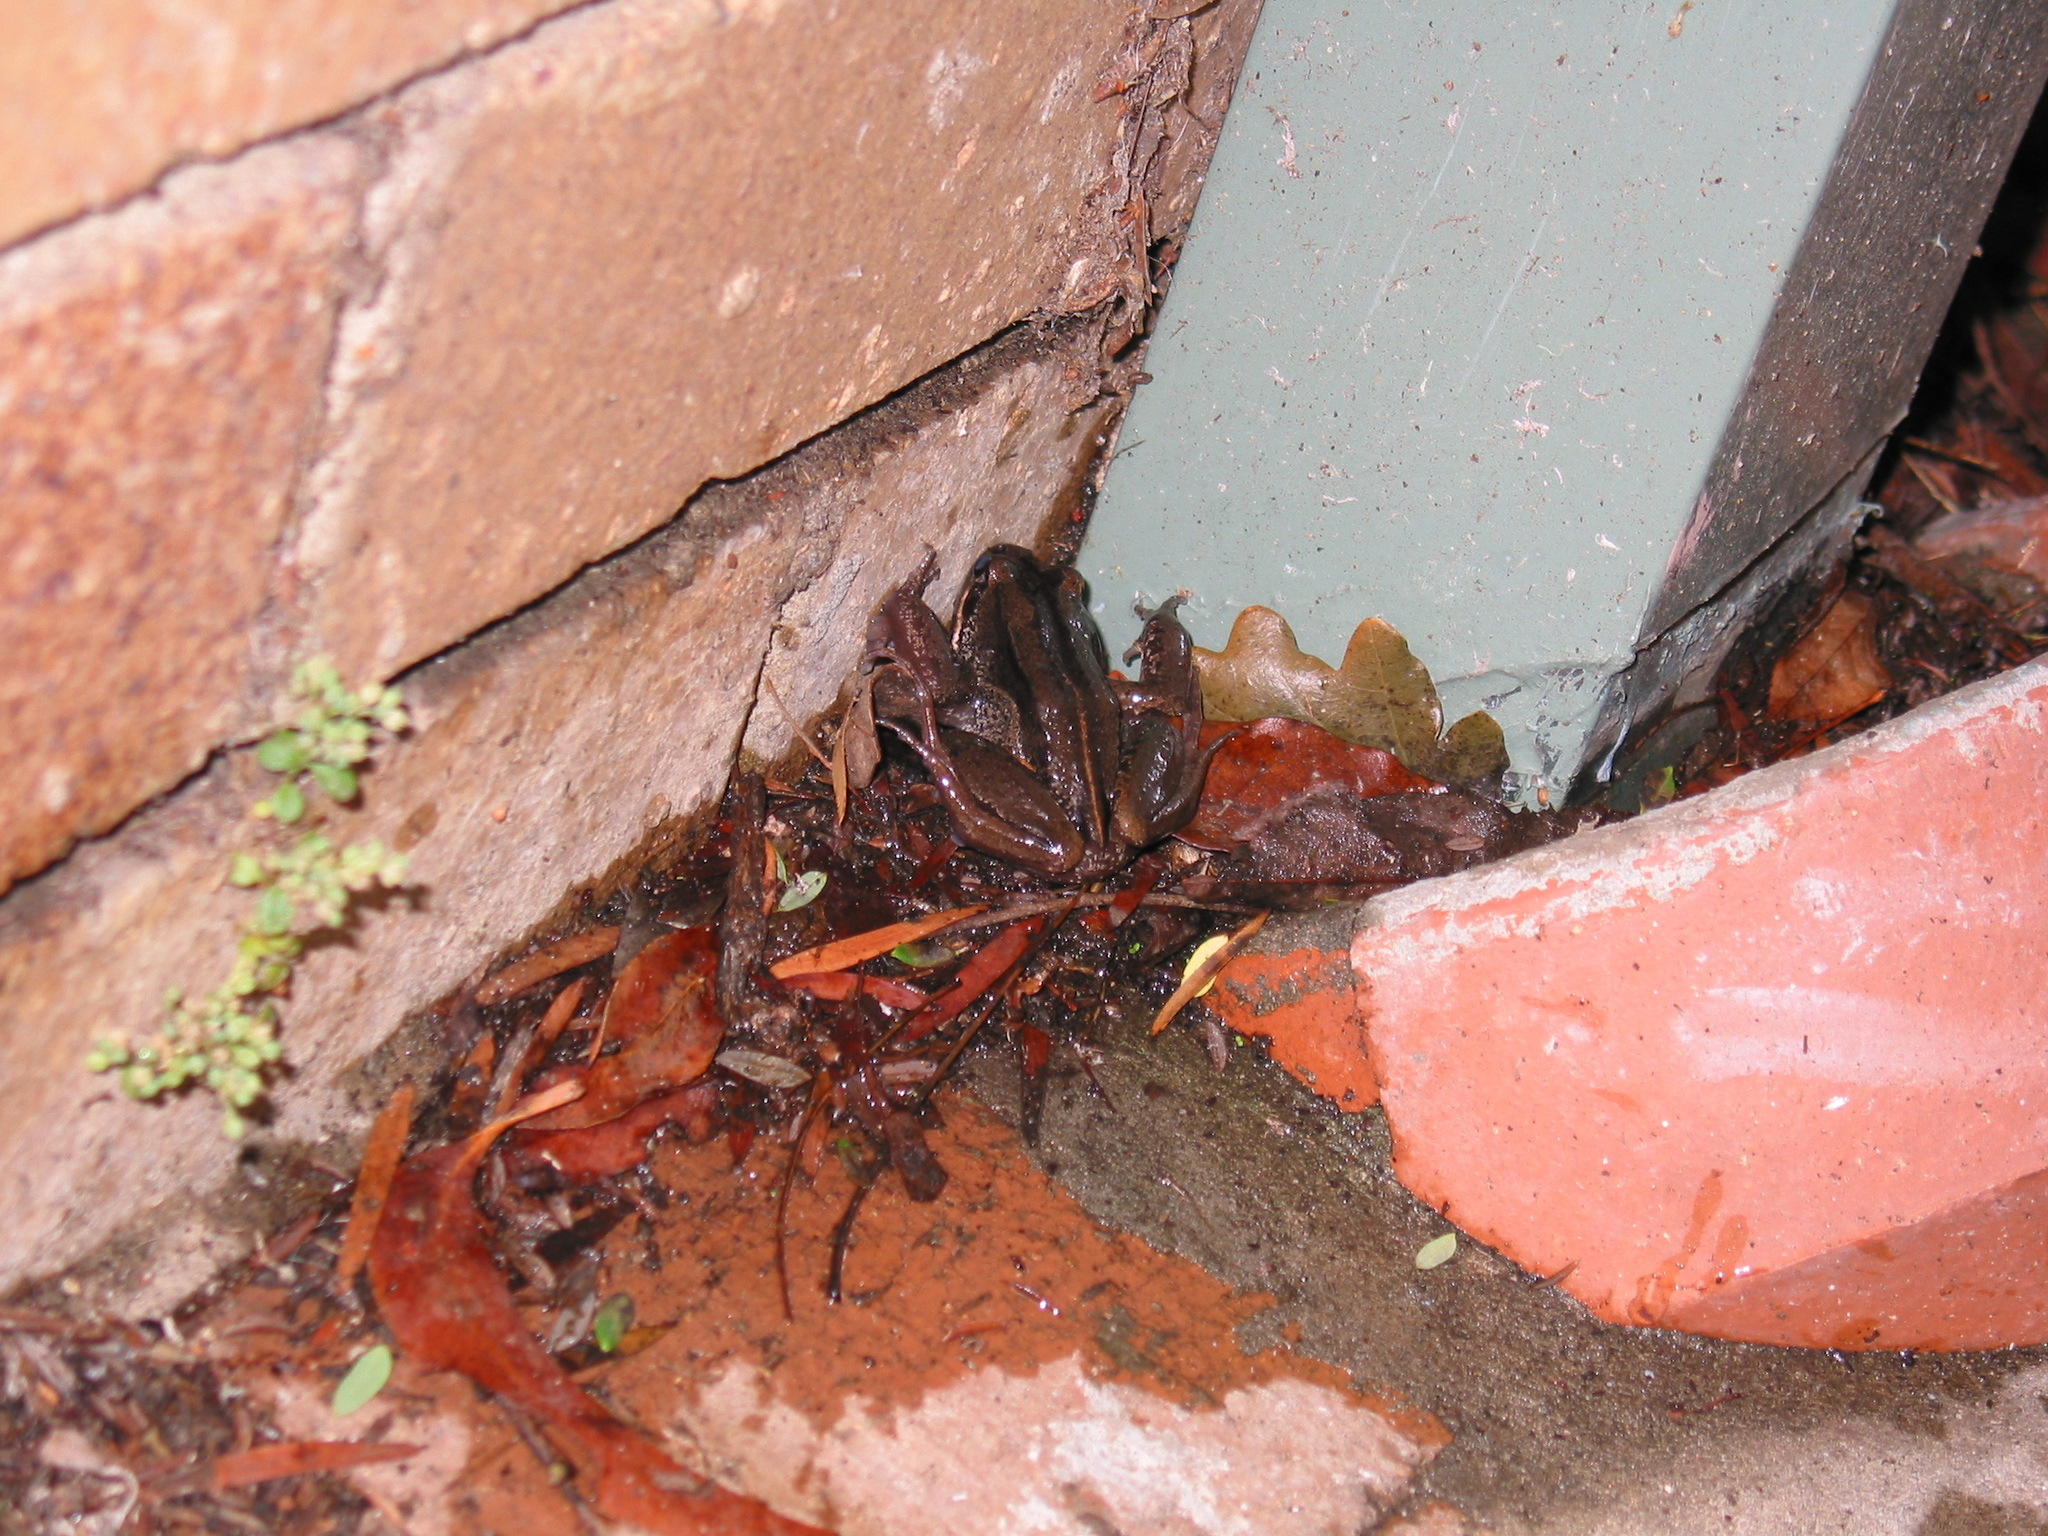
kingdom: Animalia
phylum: Chordata
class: Amphibia
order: Anura
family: Limnodynastidae
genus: Limnodynastes
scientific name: Limnodynastes peronii
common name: Brown frog
